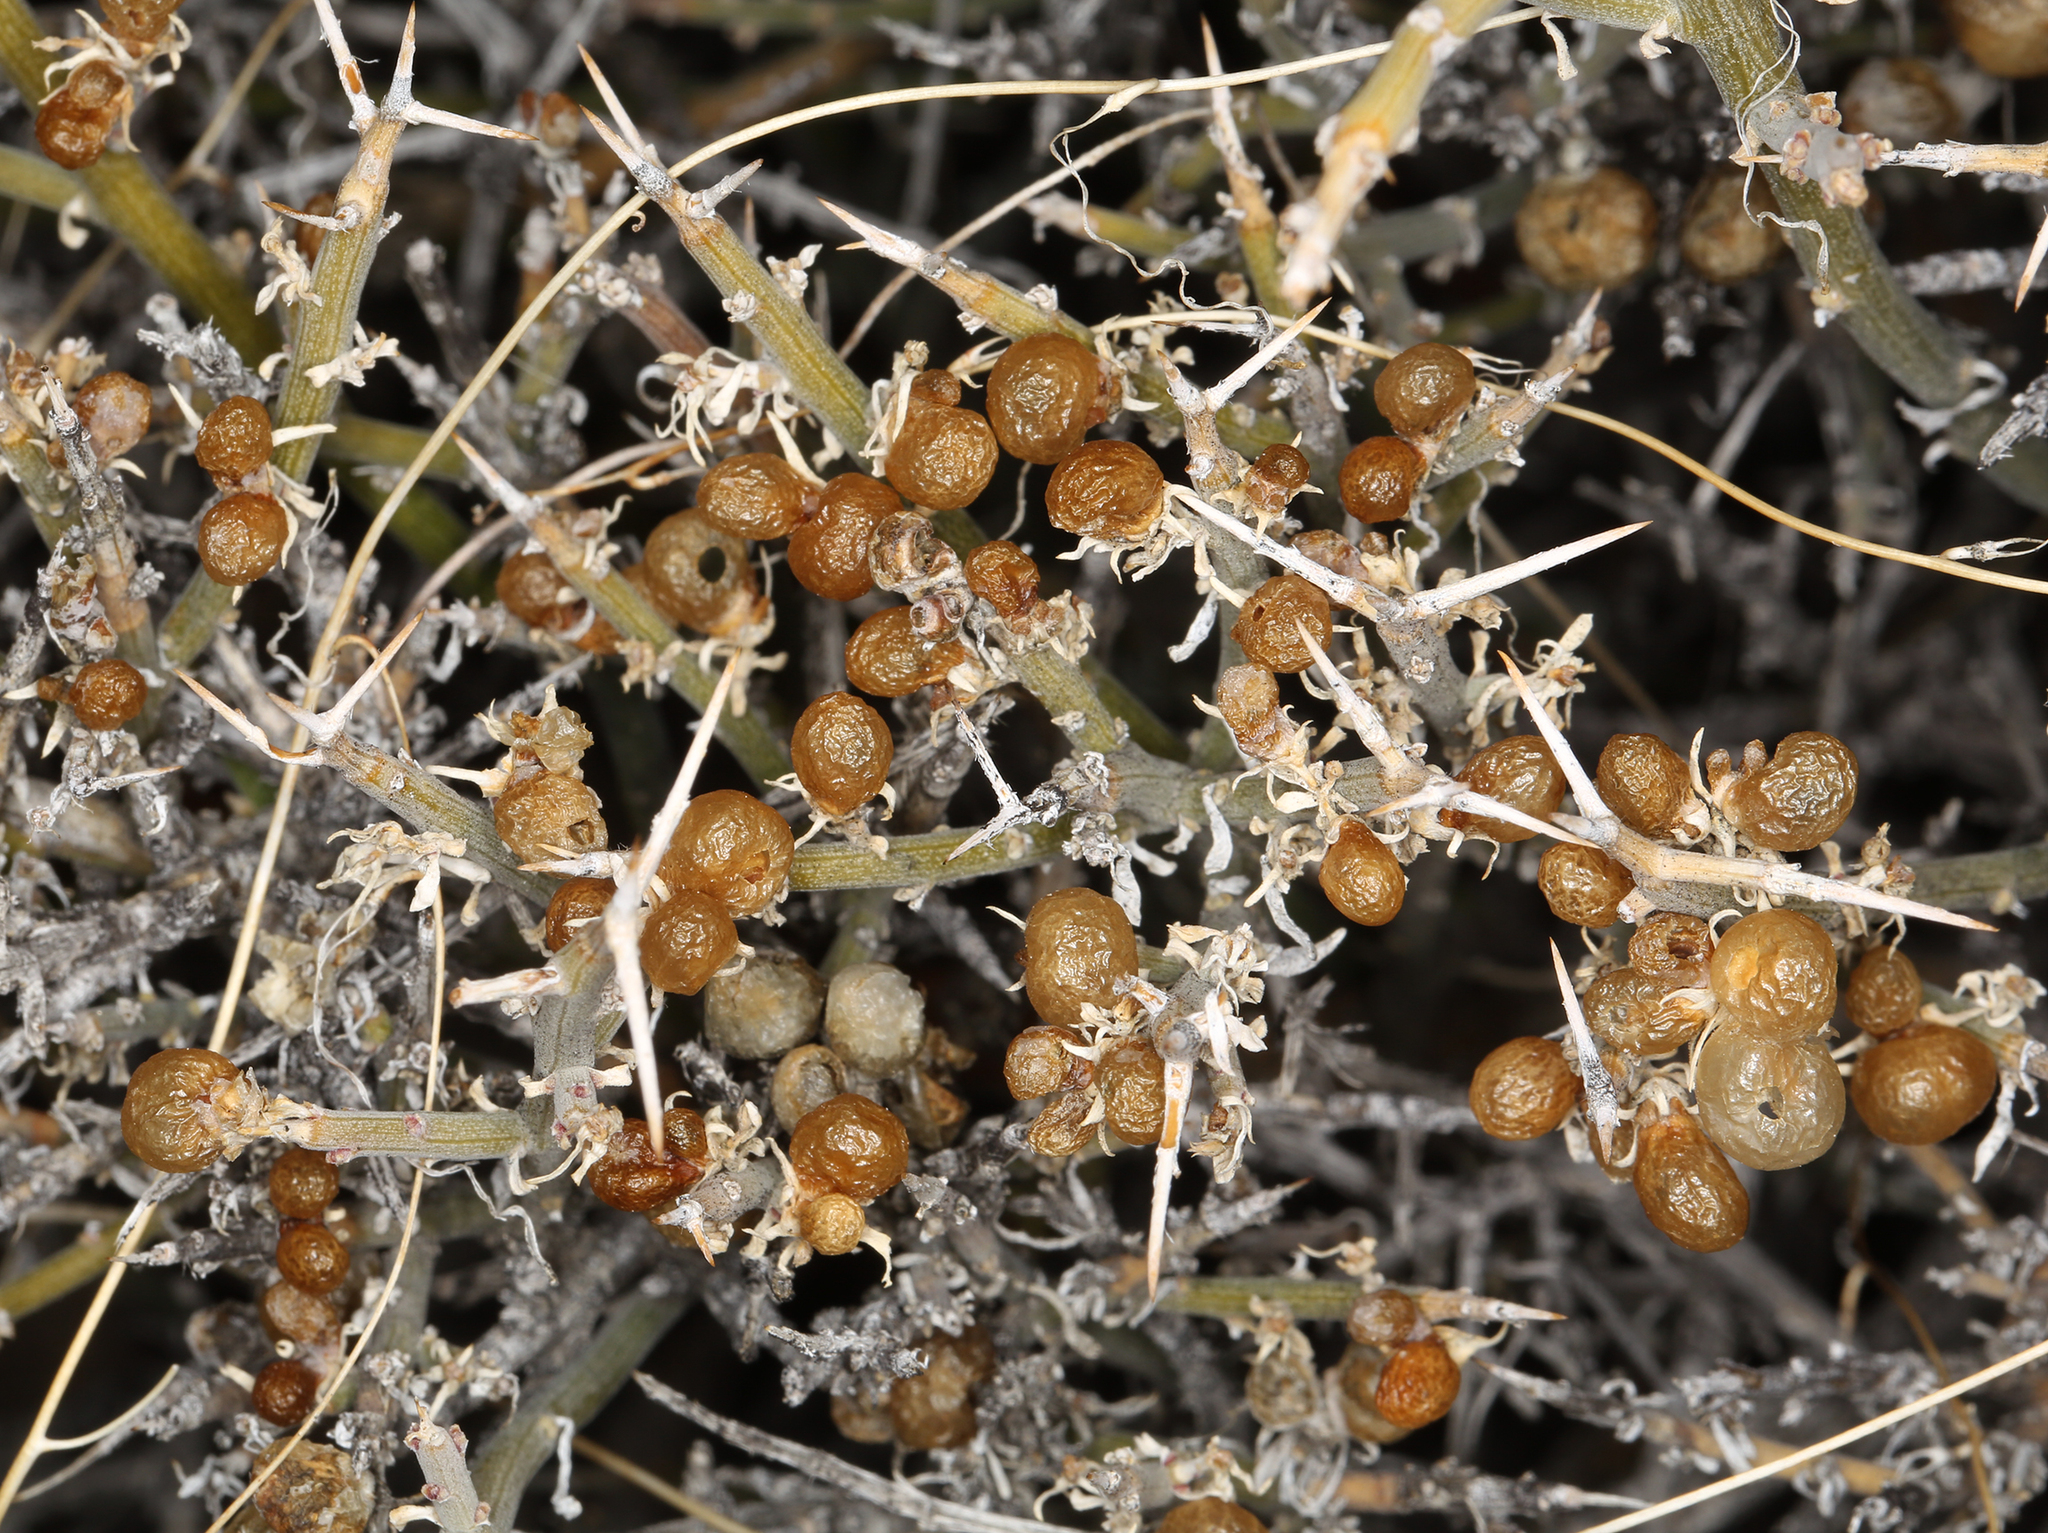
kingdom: Plantae
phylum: Tracheophyta
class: Magnoliopsida
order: Lamiales
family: Oleaceae
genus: Menodora
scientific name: Menodora spinescens
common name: Spiny menodora
